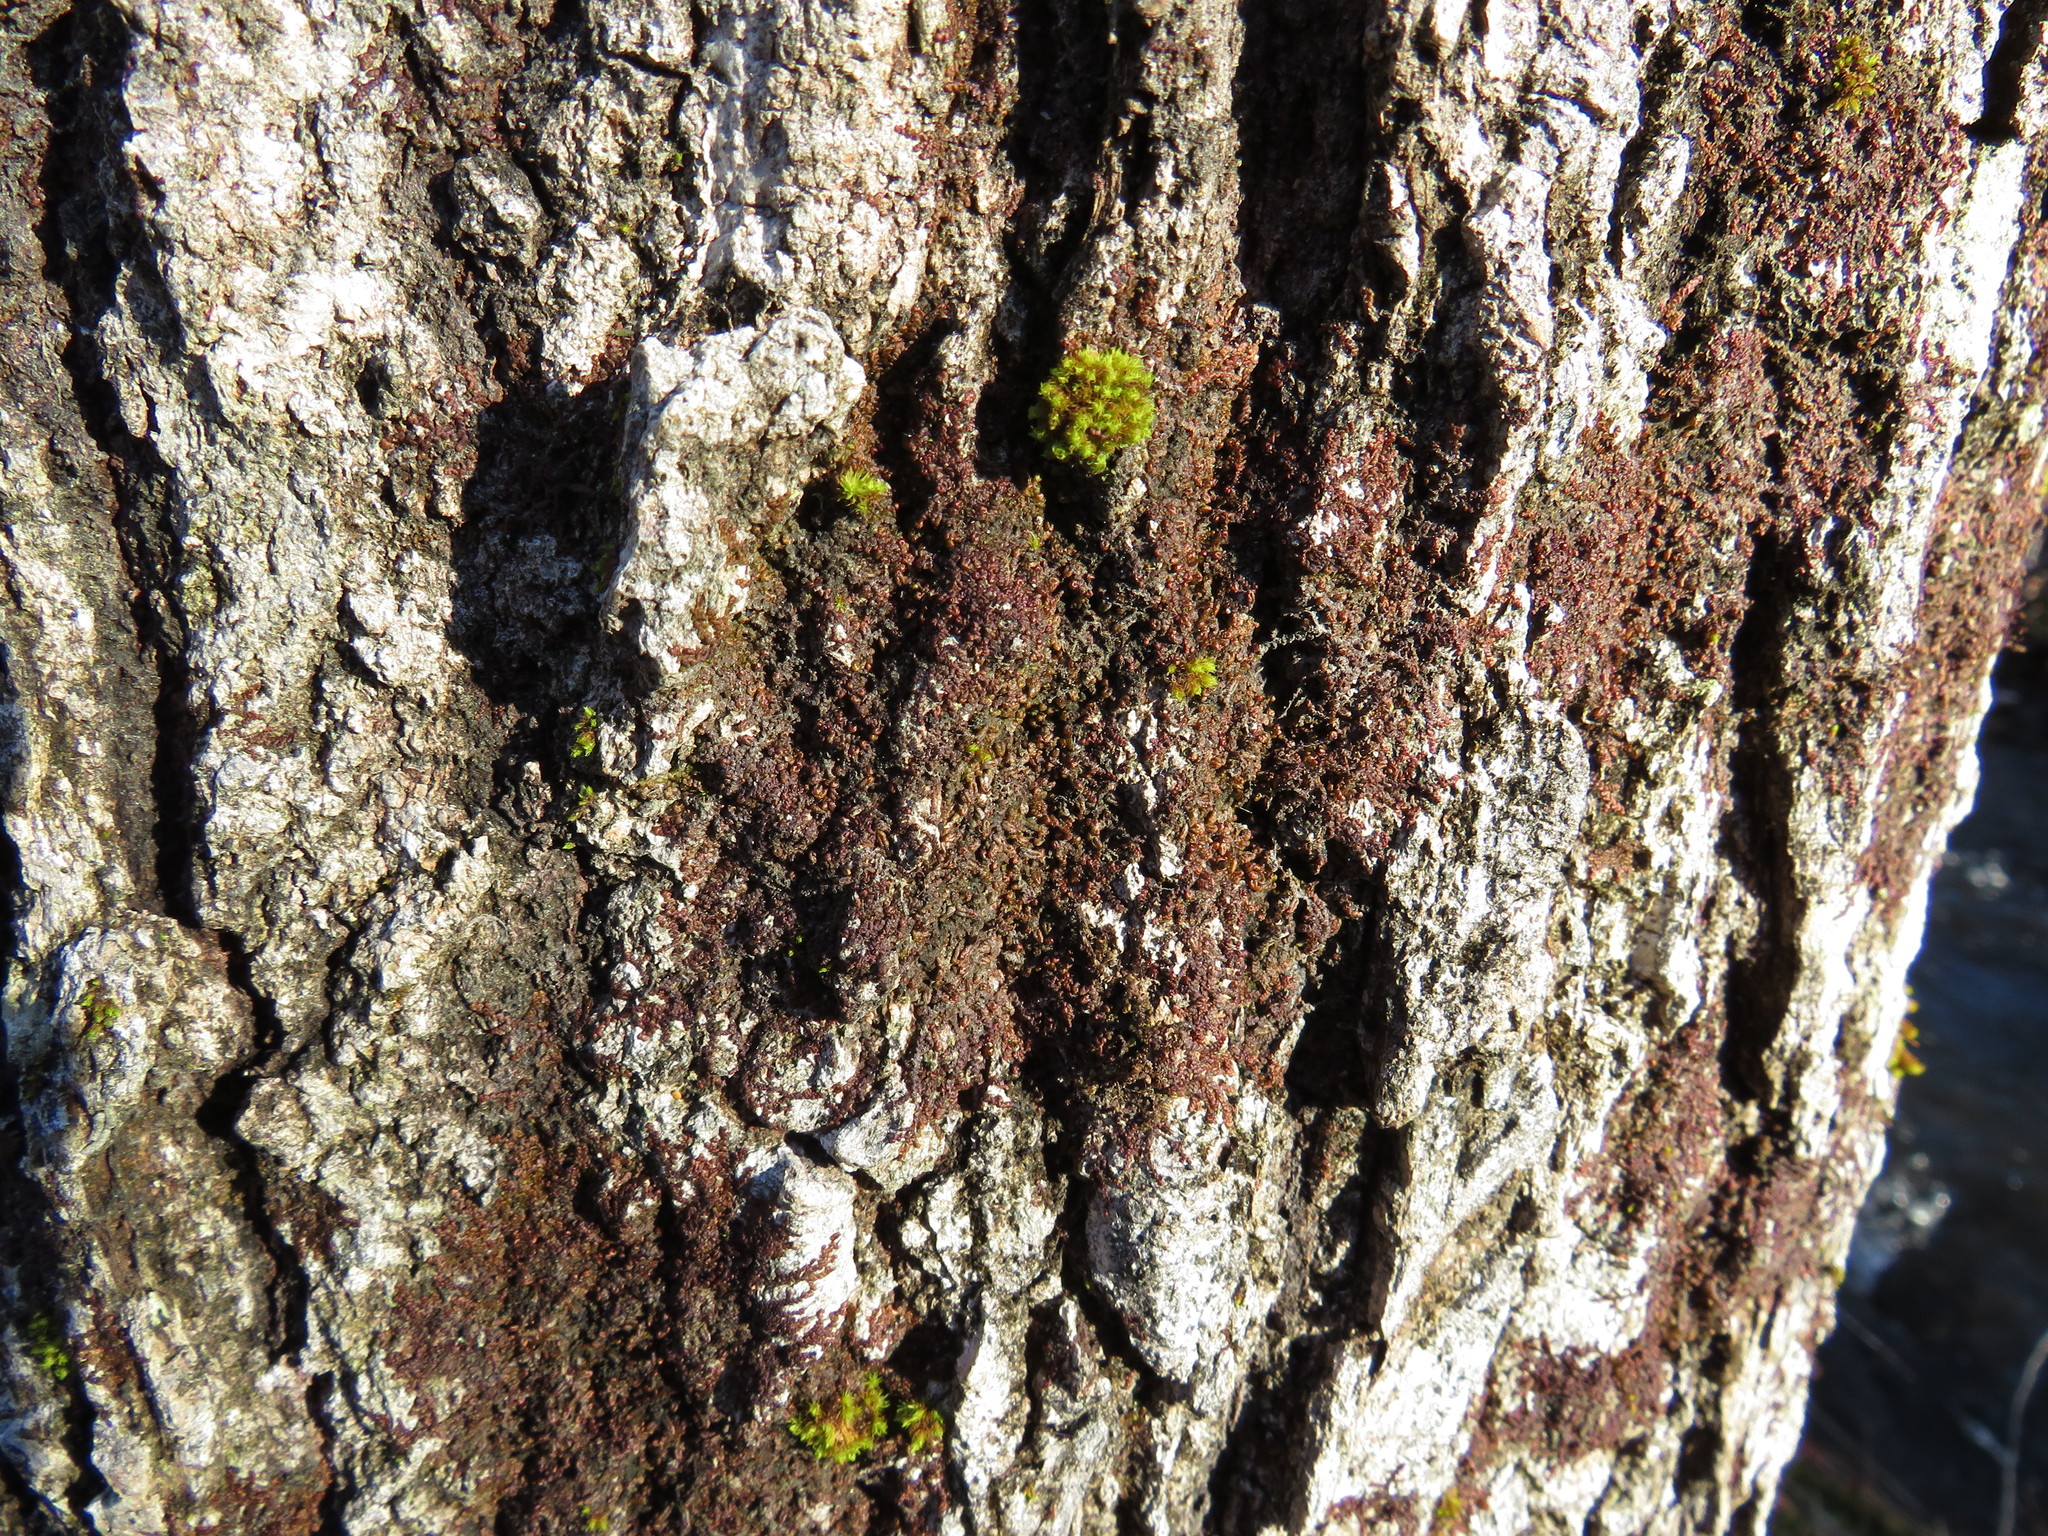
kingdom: Plantae
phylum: Marchantiophyta
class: Jungermanniopsida
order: Porellales
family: Frullaniaceae
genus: Frullania
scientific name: Frullania asagrayana
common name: Asa gray s scalewort
